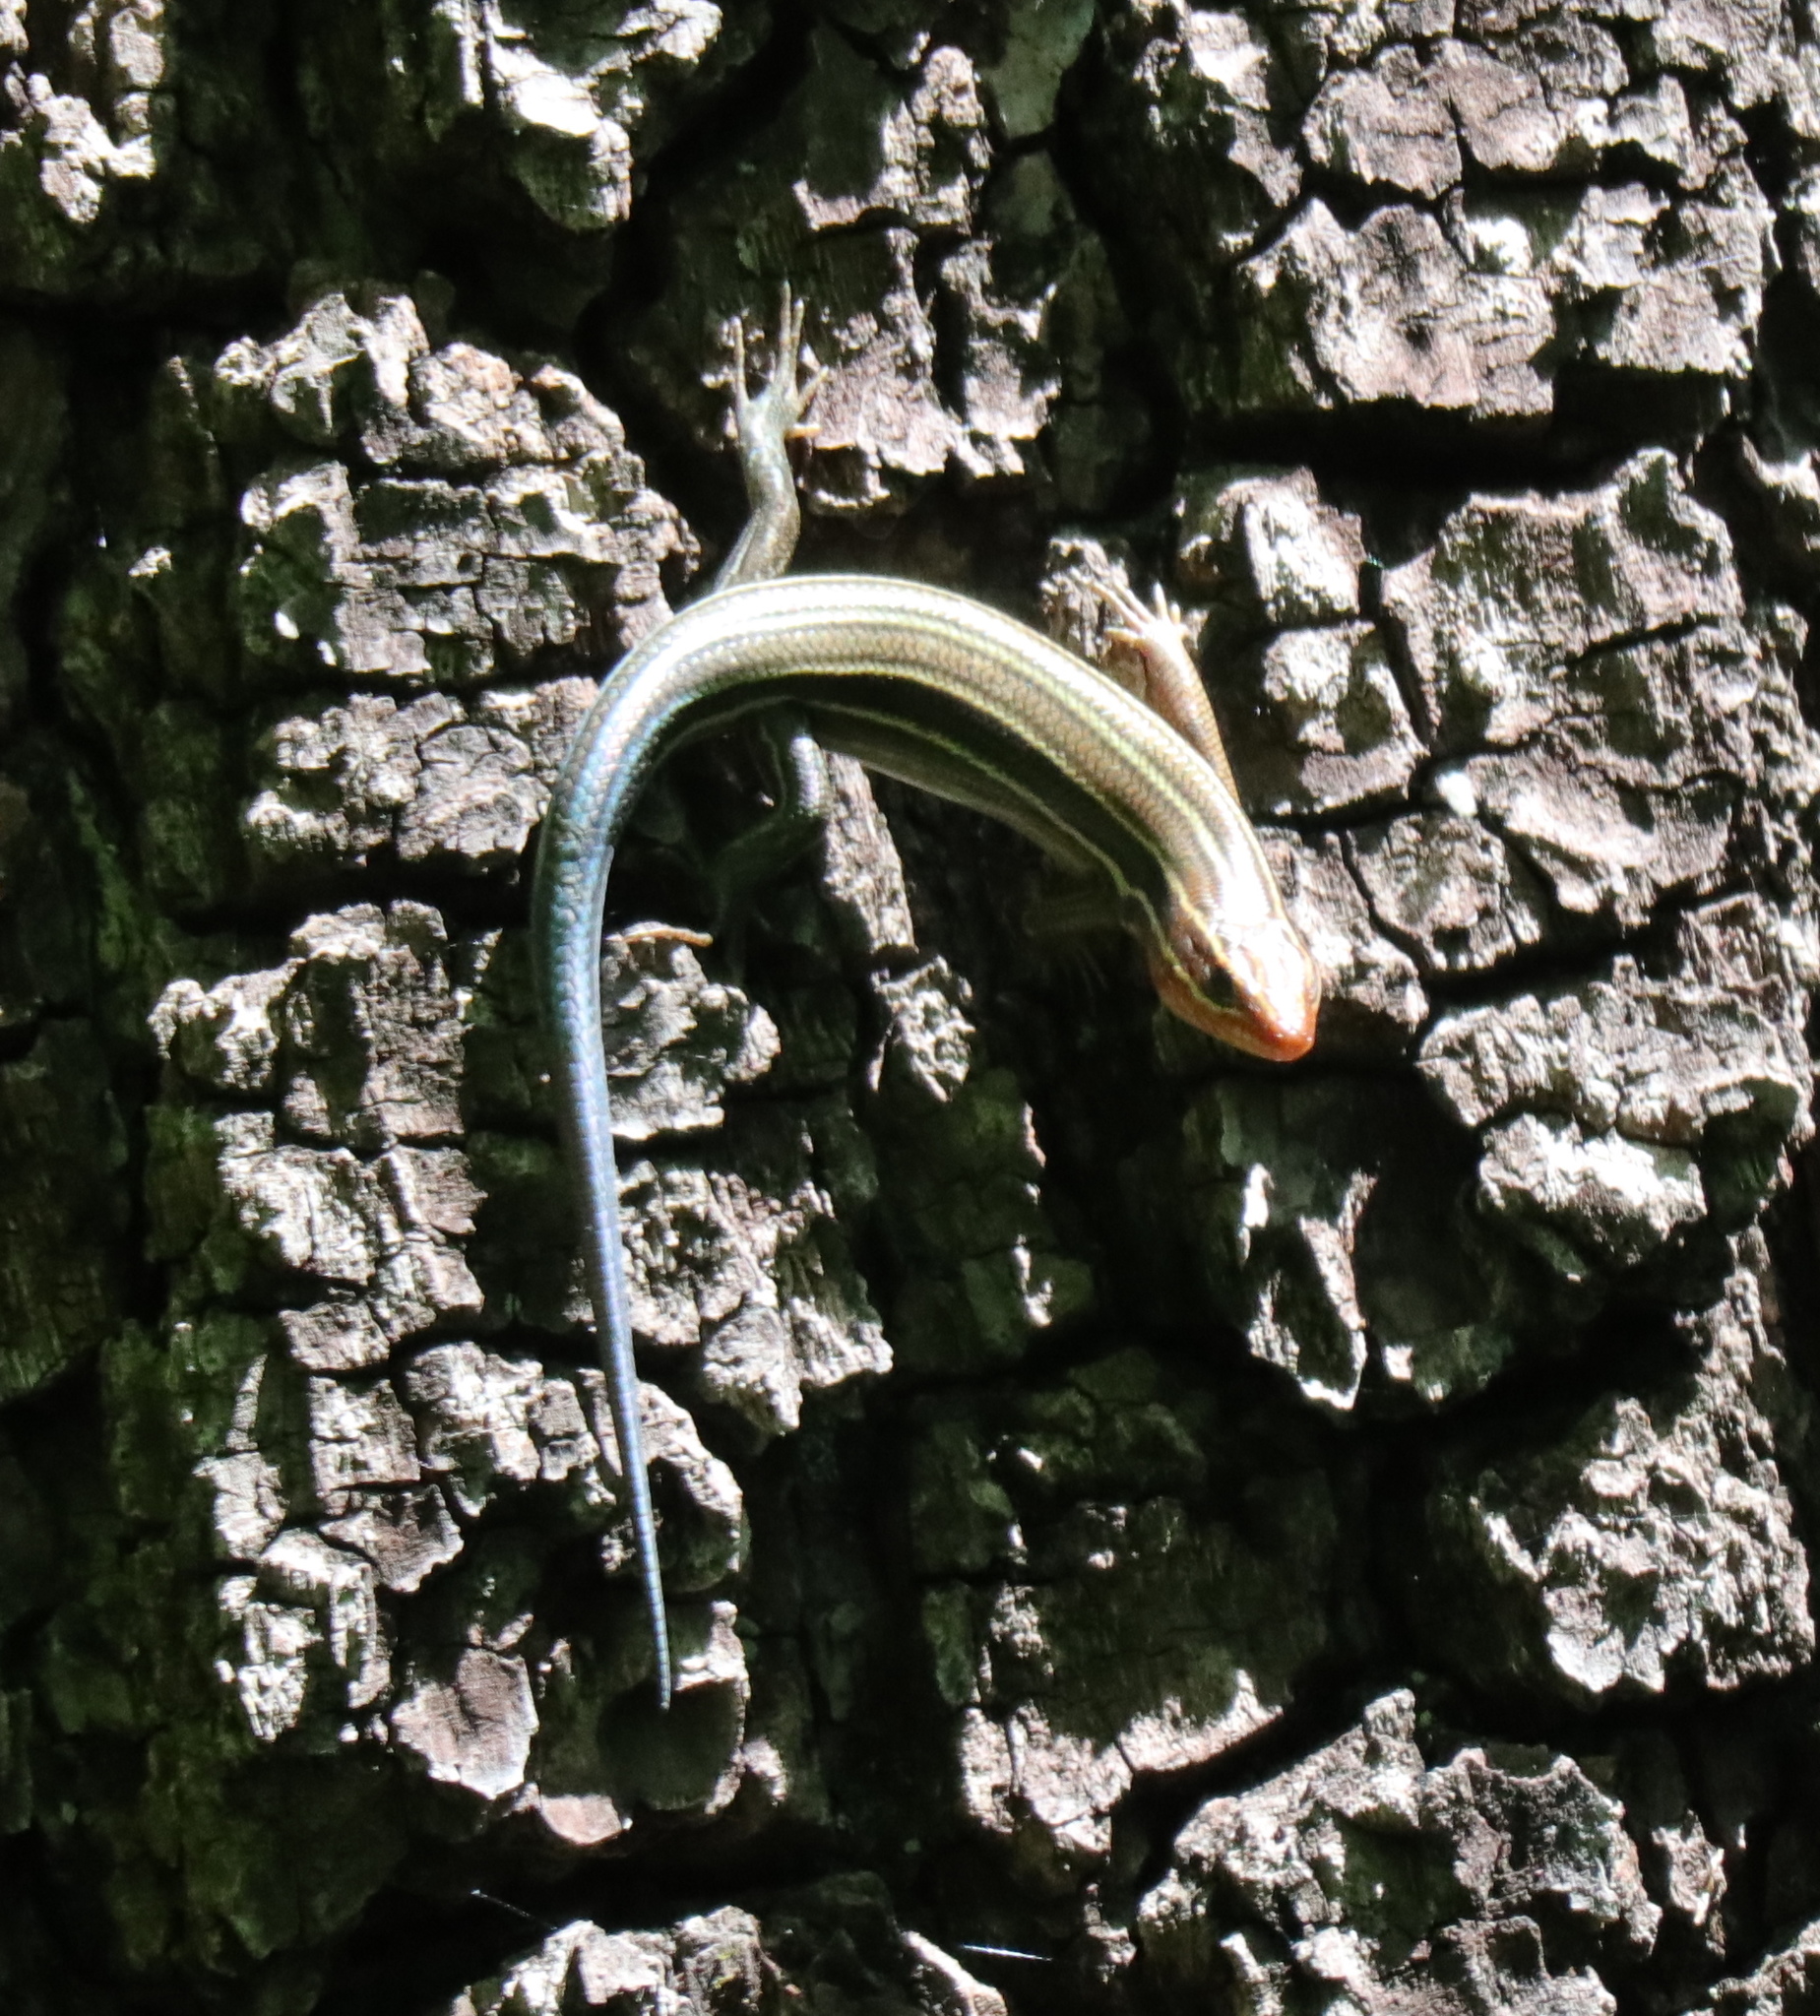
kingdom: Animalia
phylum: Chordata
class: Squamata
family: Scincidae
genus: Plestiodon
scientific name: Plestiodon laticeps
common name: Broadhead skink
